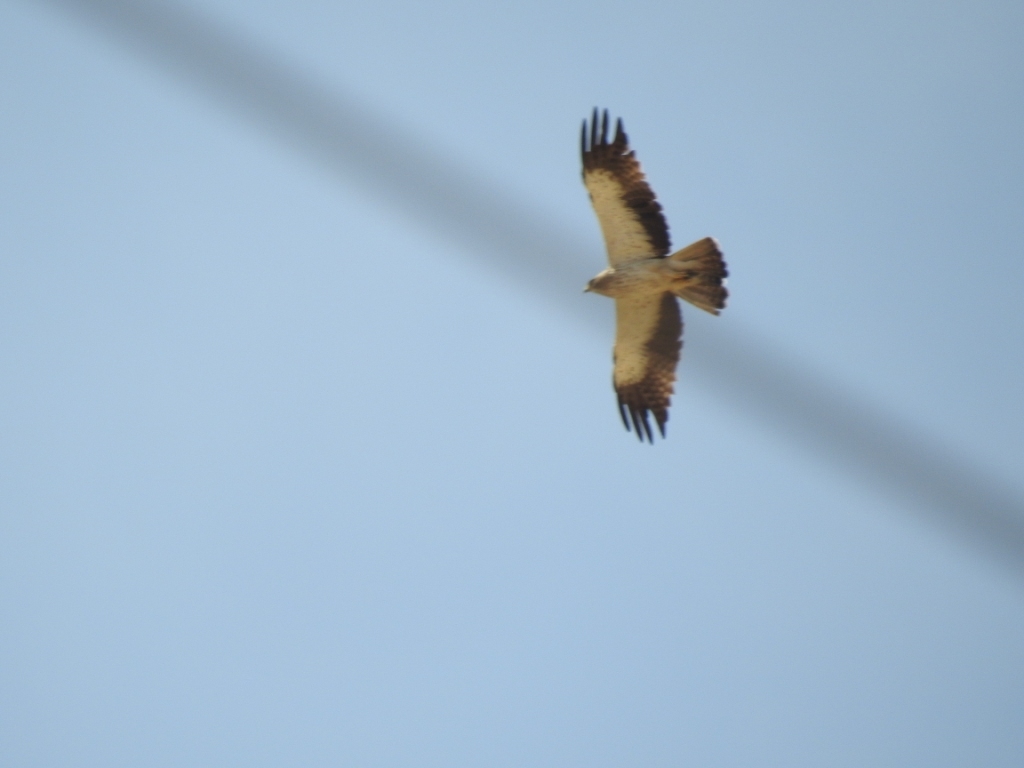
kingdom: Animalia
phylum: Chordata
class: Aves
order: Accipitriformes
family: Accipitridae
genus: Hieraaetus
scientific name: Hieraaetus pennatus
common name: Booted eagle
